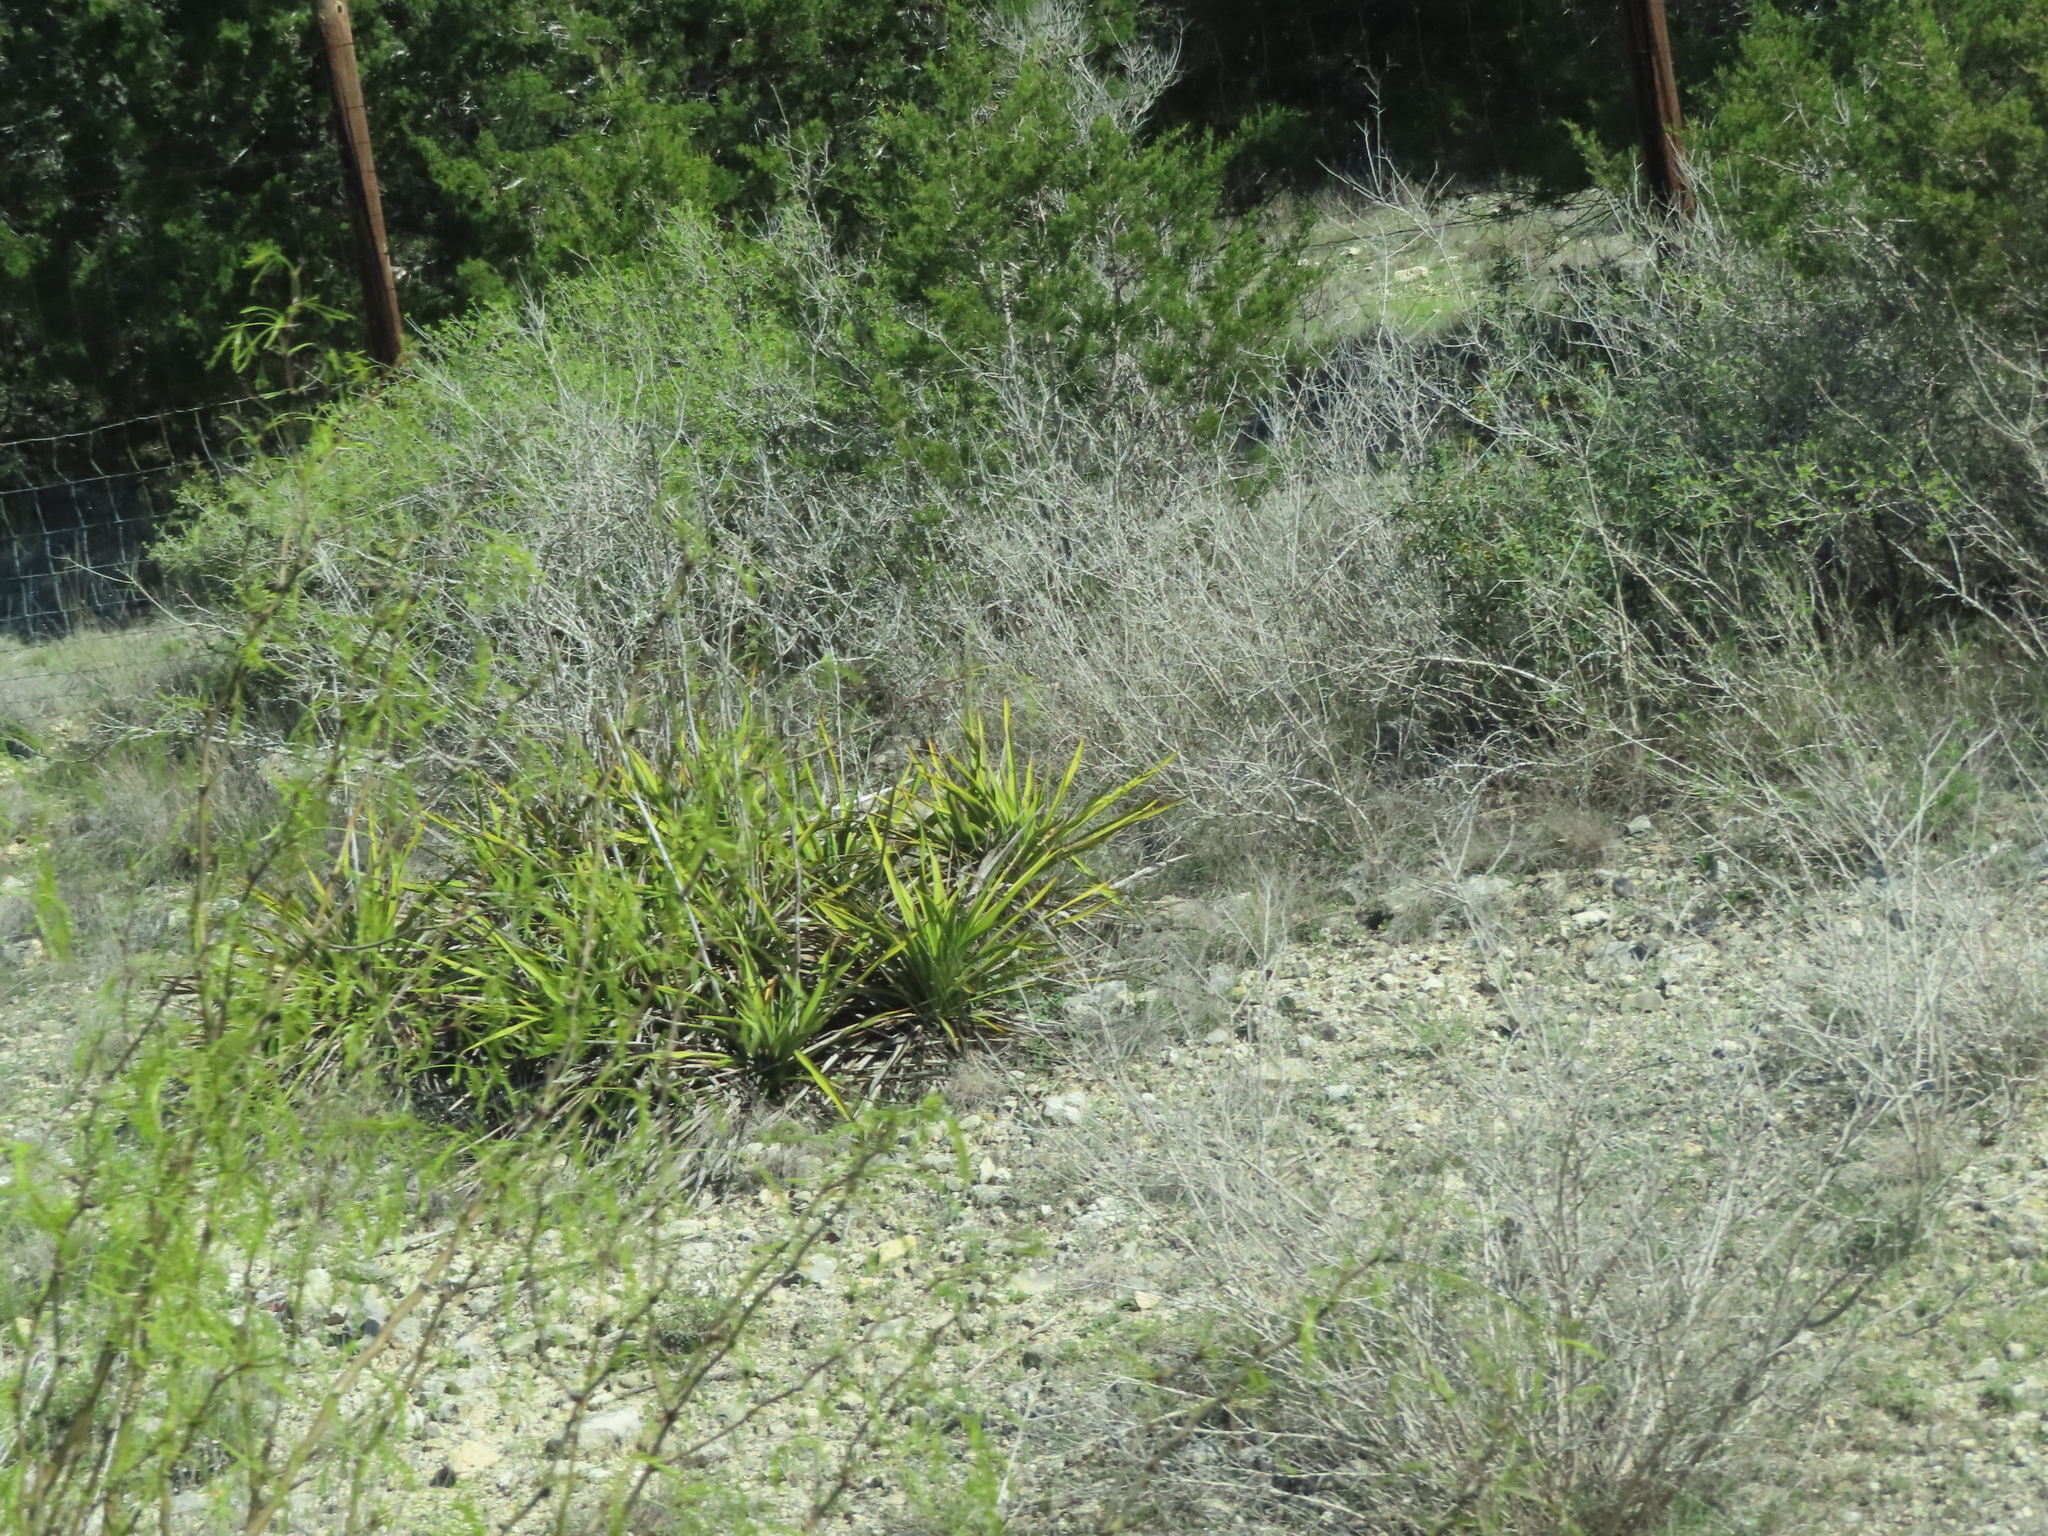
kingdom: Plantae
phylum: Tracheophyta
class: Liliopsida
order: Asparagales
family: Asparagaceae
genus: Yucca
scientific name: Yucca rupicola
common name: Twisted-leaf spanish-dagger
